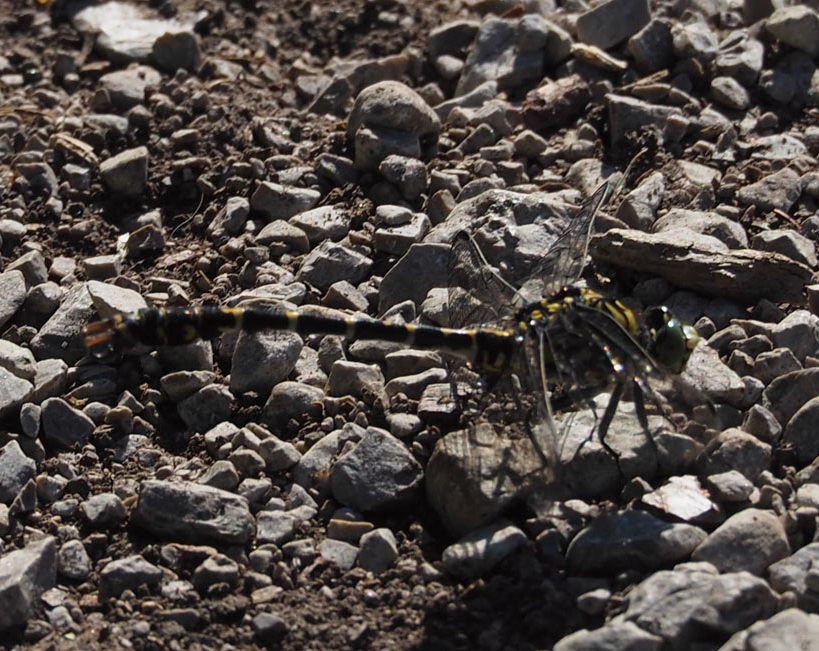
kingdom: Animalia
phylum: Arthropoda
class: Insecta
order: Odonata
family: Gomphidae
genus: Onychogomphus
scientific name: Onychogomphus forcipatus
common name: Small pincertail
